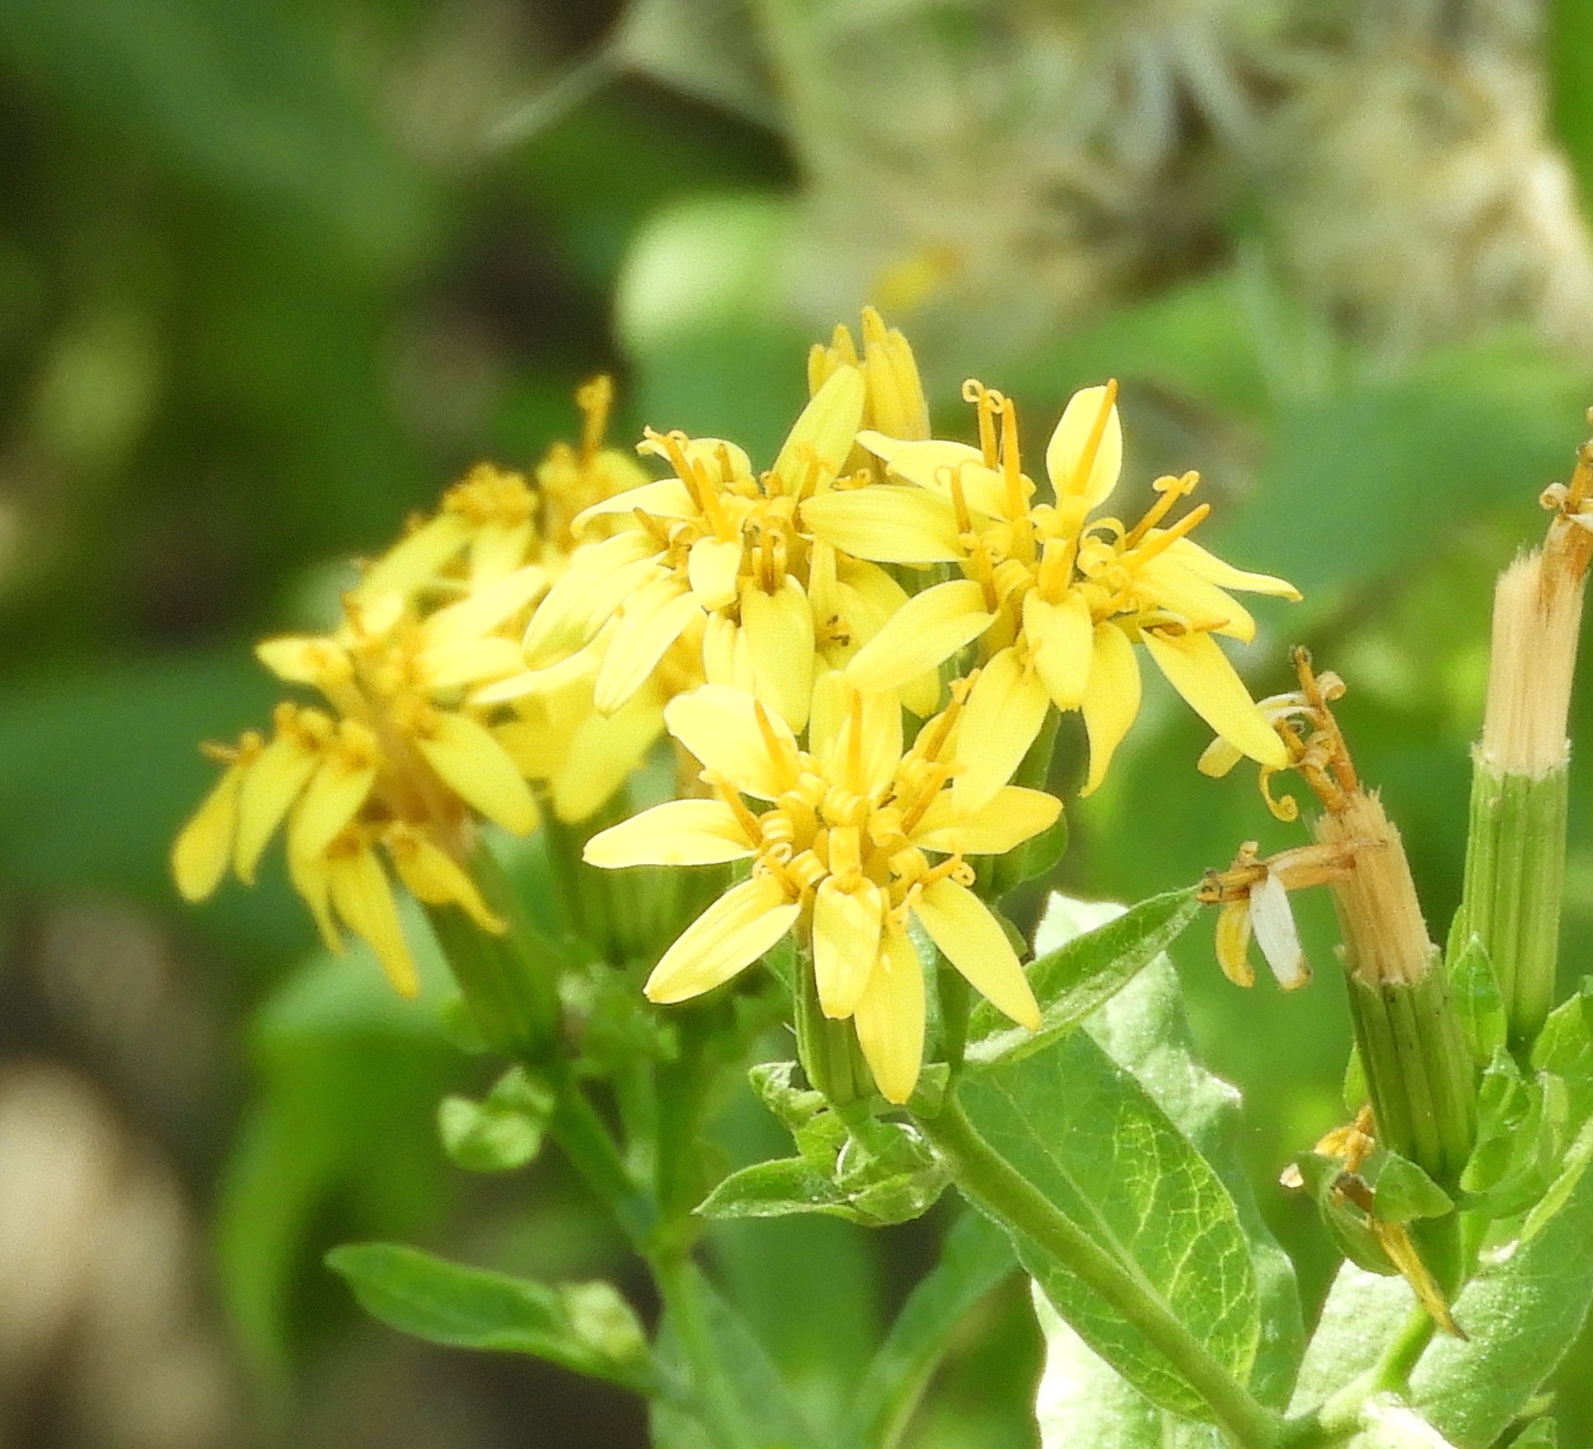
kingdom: Plantae
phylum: Tracheophyta
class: Magnoliopsida
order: Asterales
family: Asteraceae
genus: Trixis
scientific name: Trixis pterocaulis
